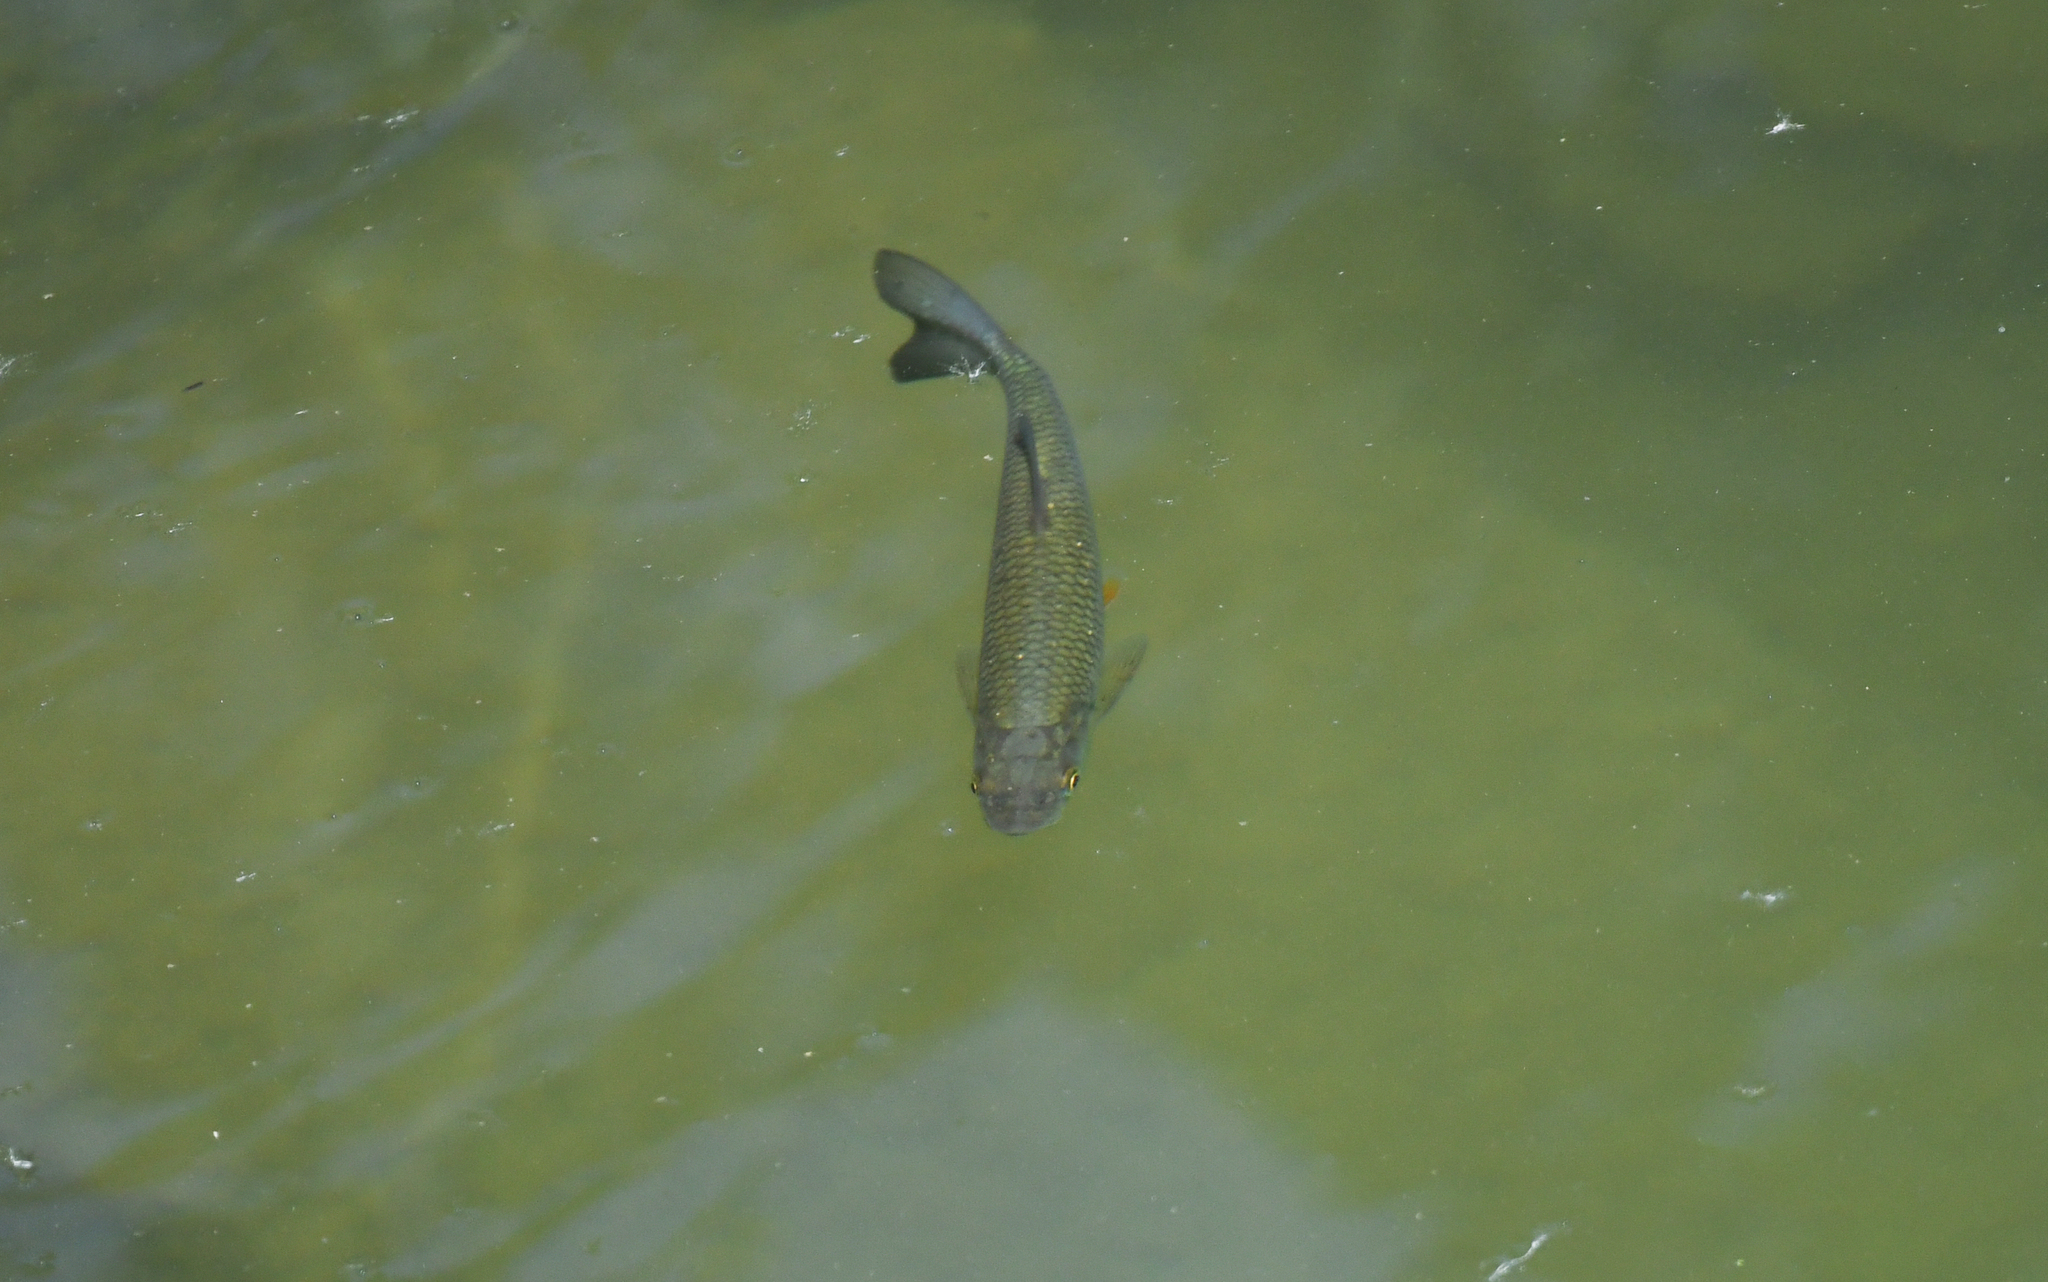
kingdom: Animalia
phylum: Chordata
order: Cypriniformes
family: Cyprinidae
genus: Squalius
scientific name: Squalius cephalus
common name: Chub
